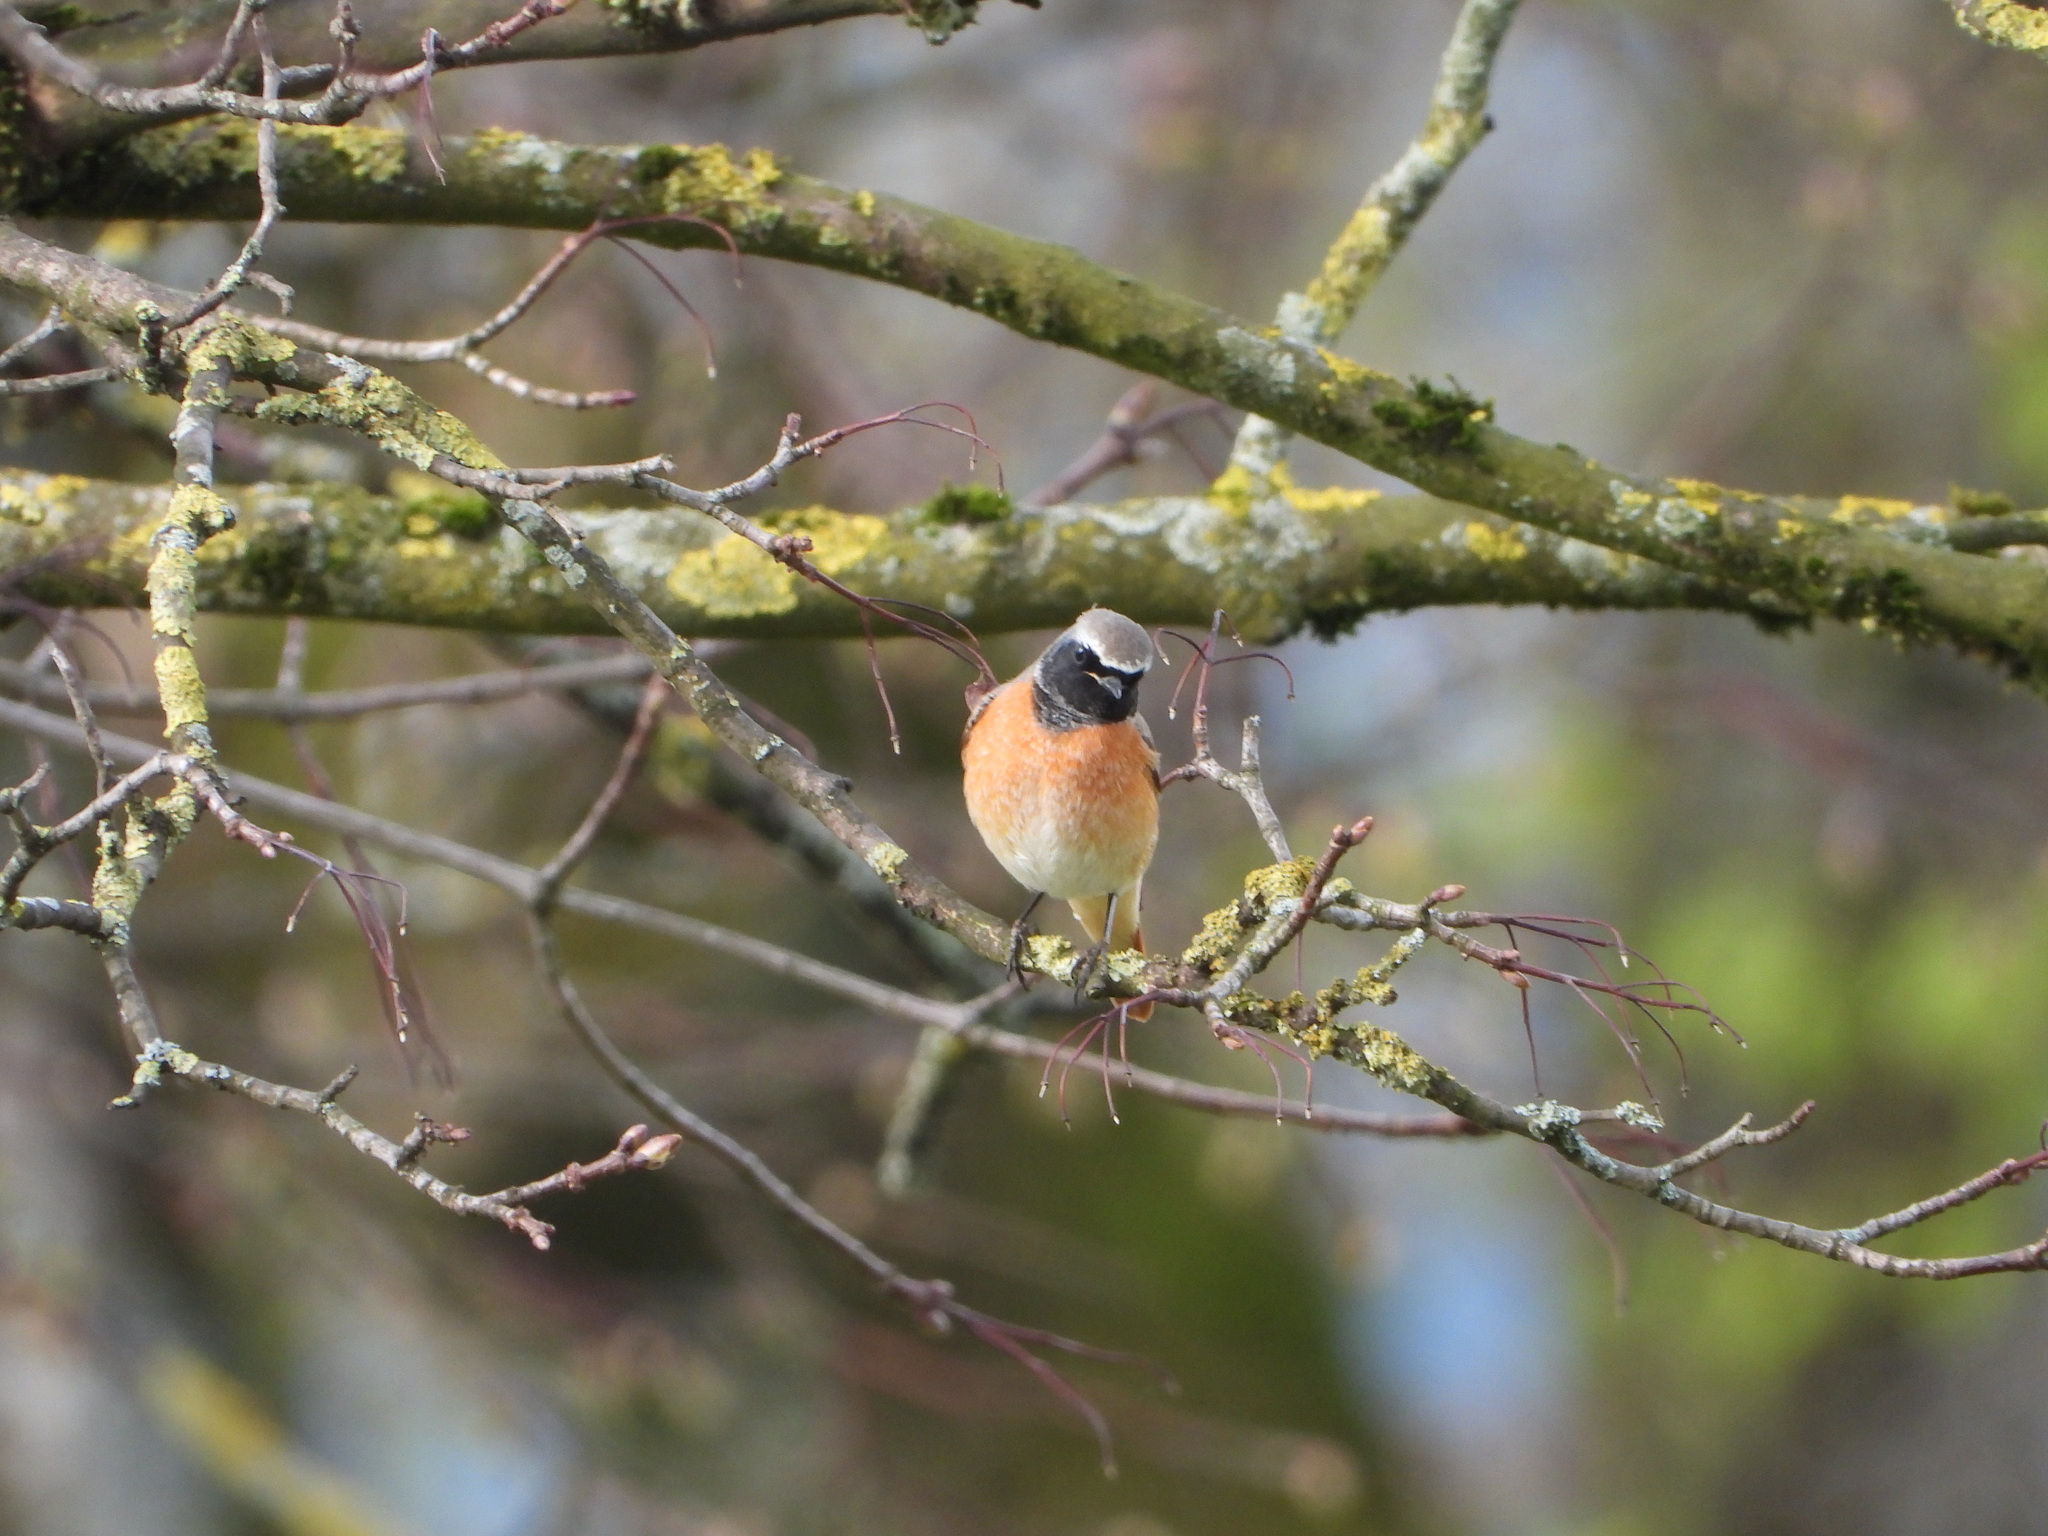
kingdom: Animalia
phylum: Chordata
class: Aves
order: Passeriformes
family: Muscicapidae
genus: Phoenicurus
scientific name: Phoenicurus phoenicurus
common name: Common redstart
